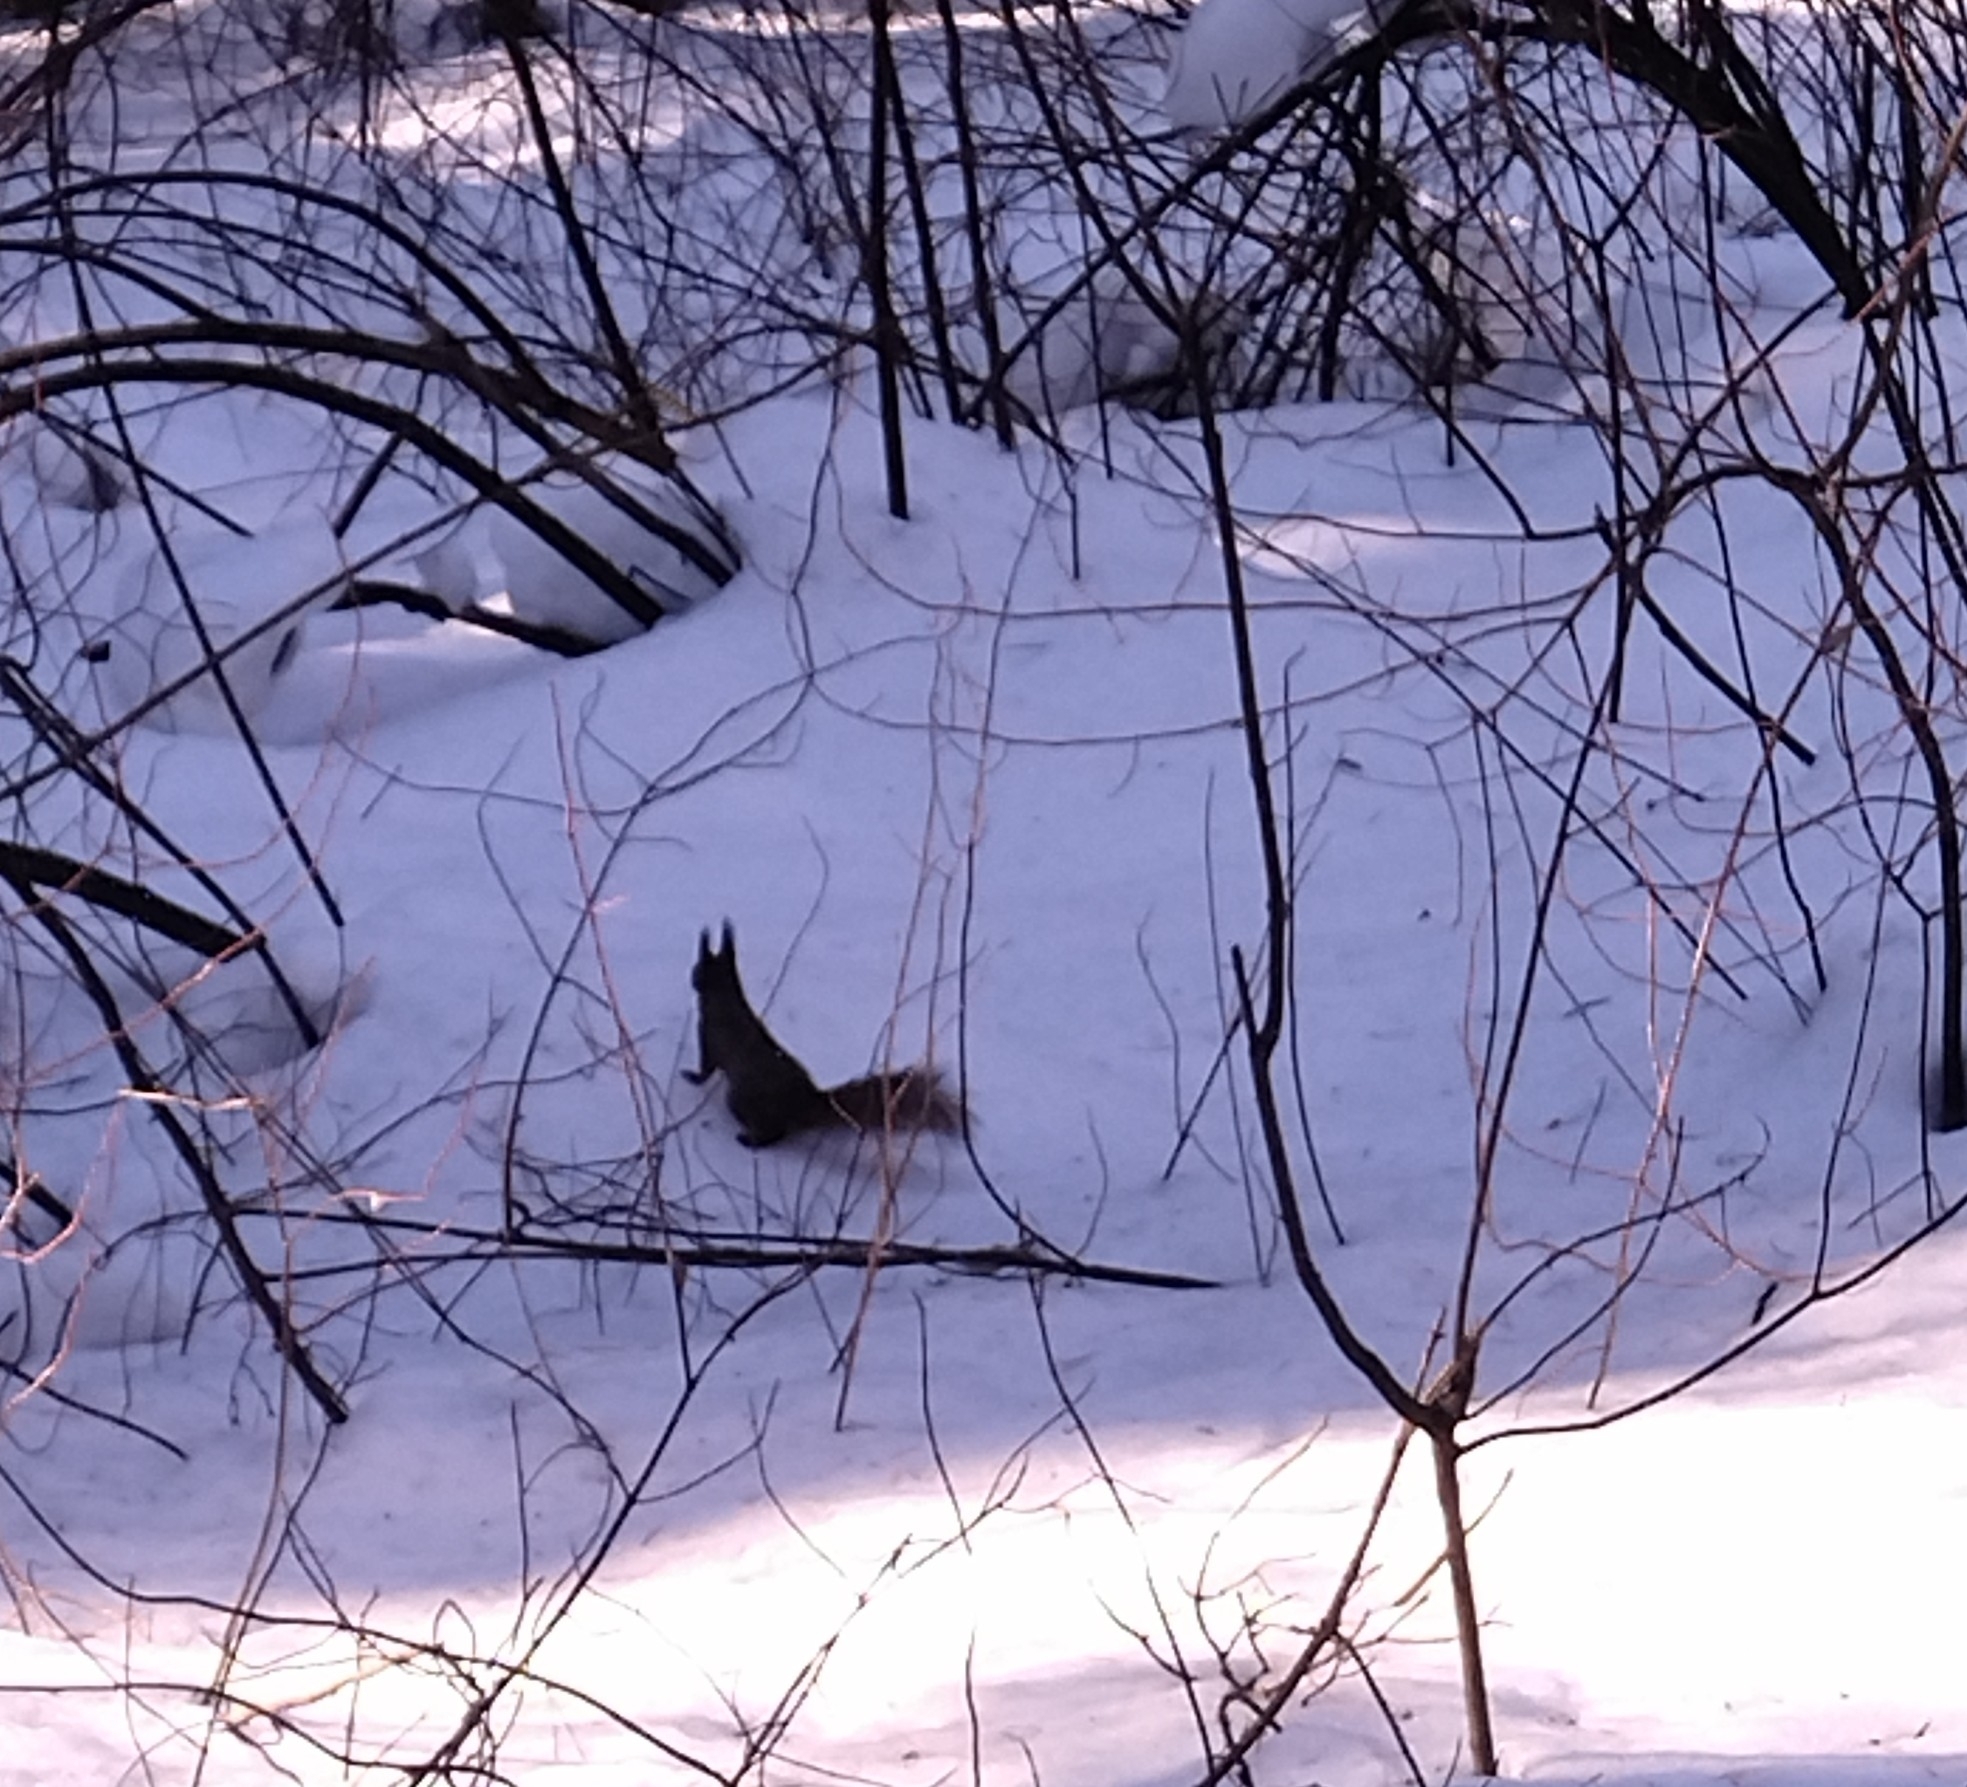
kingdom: Animalia
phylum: Chordata
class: Mammalia
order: Rodentia
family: Sciuridae
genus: Sciurus
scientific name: Sciurus vulgaris
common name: Eurasian red squirrel
